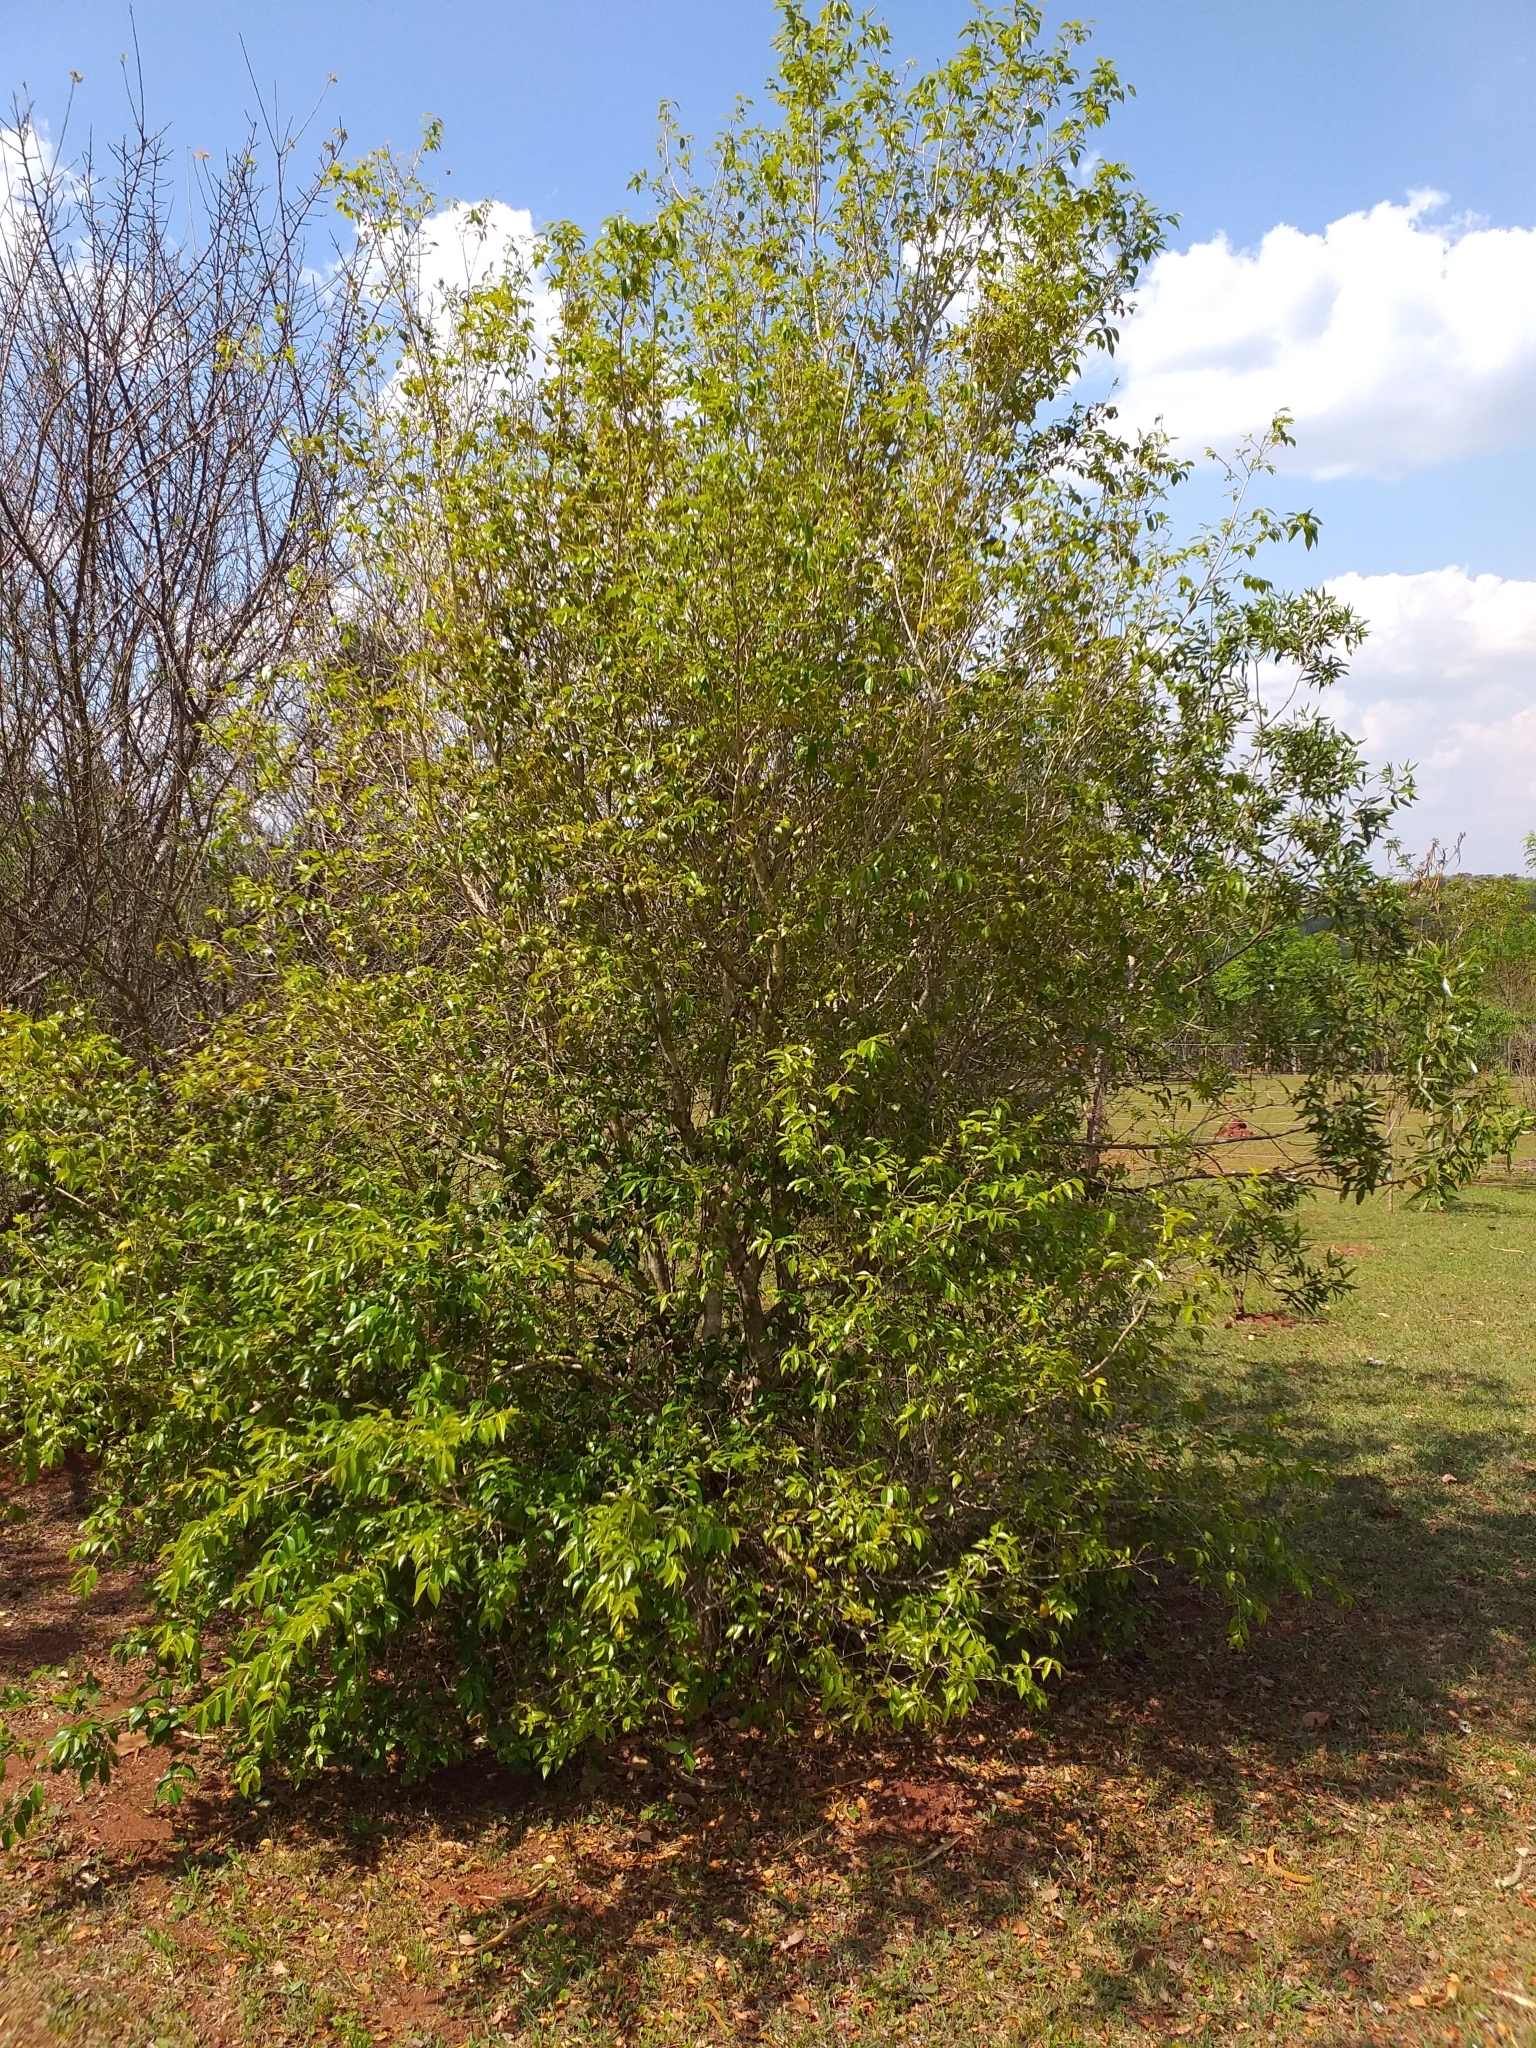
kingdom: Plantae
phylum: Tracheophyta
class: Magnoliopsida
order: Myrtales
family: Myrtaceae
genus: Eugenia
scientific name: Eugenia uniflora
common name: Surinam cherry
